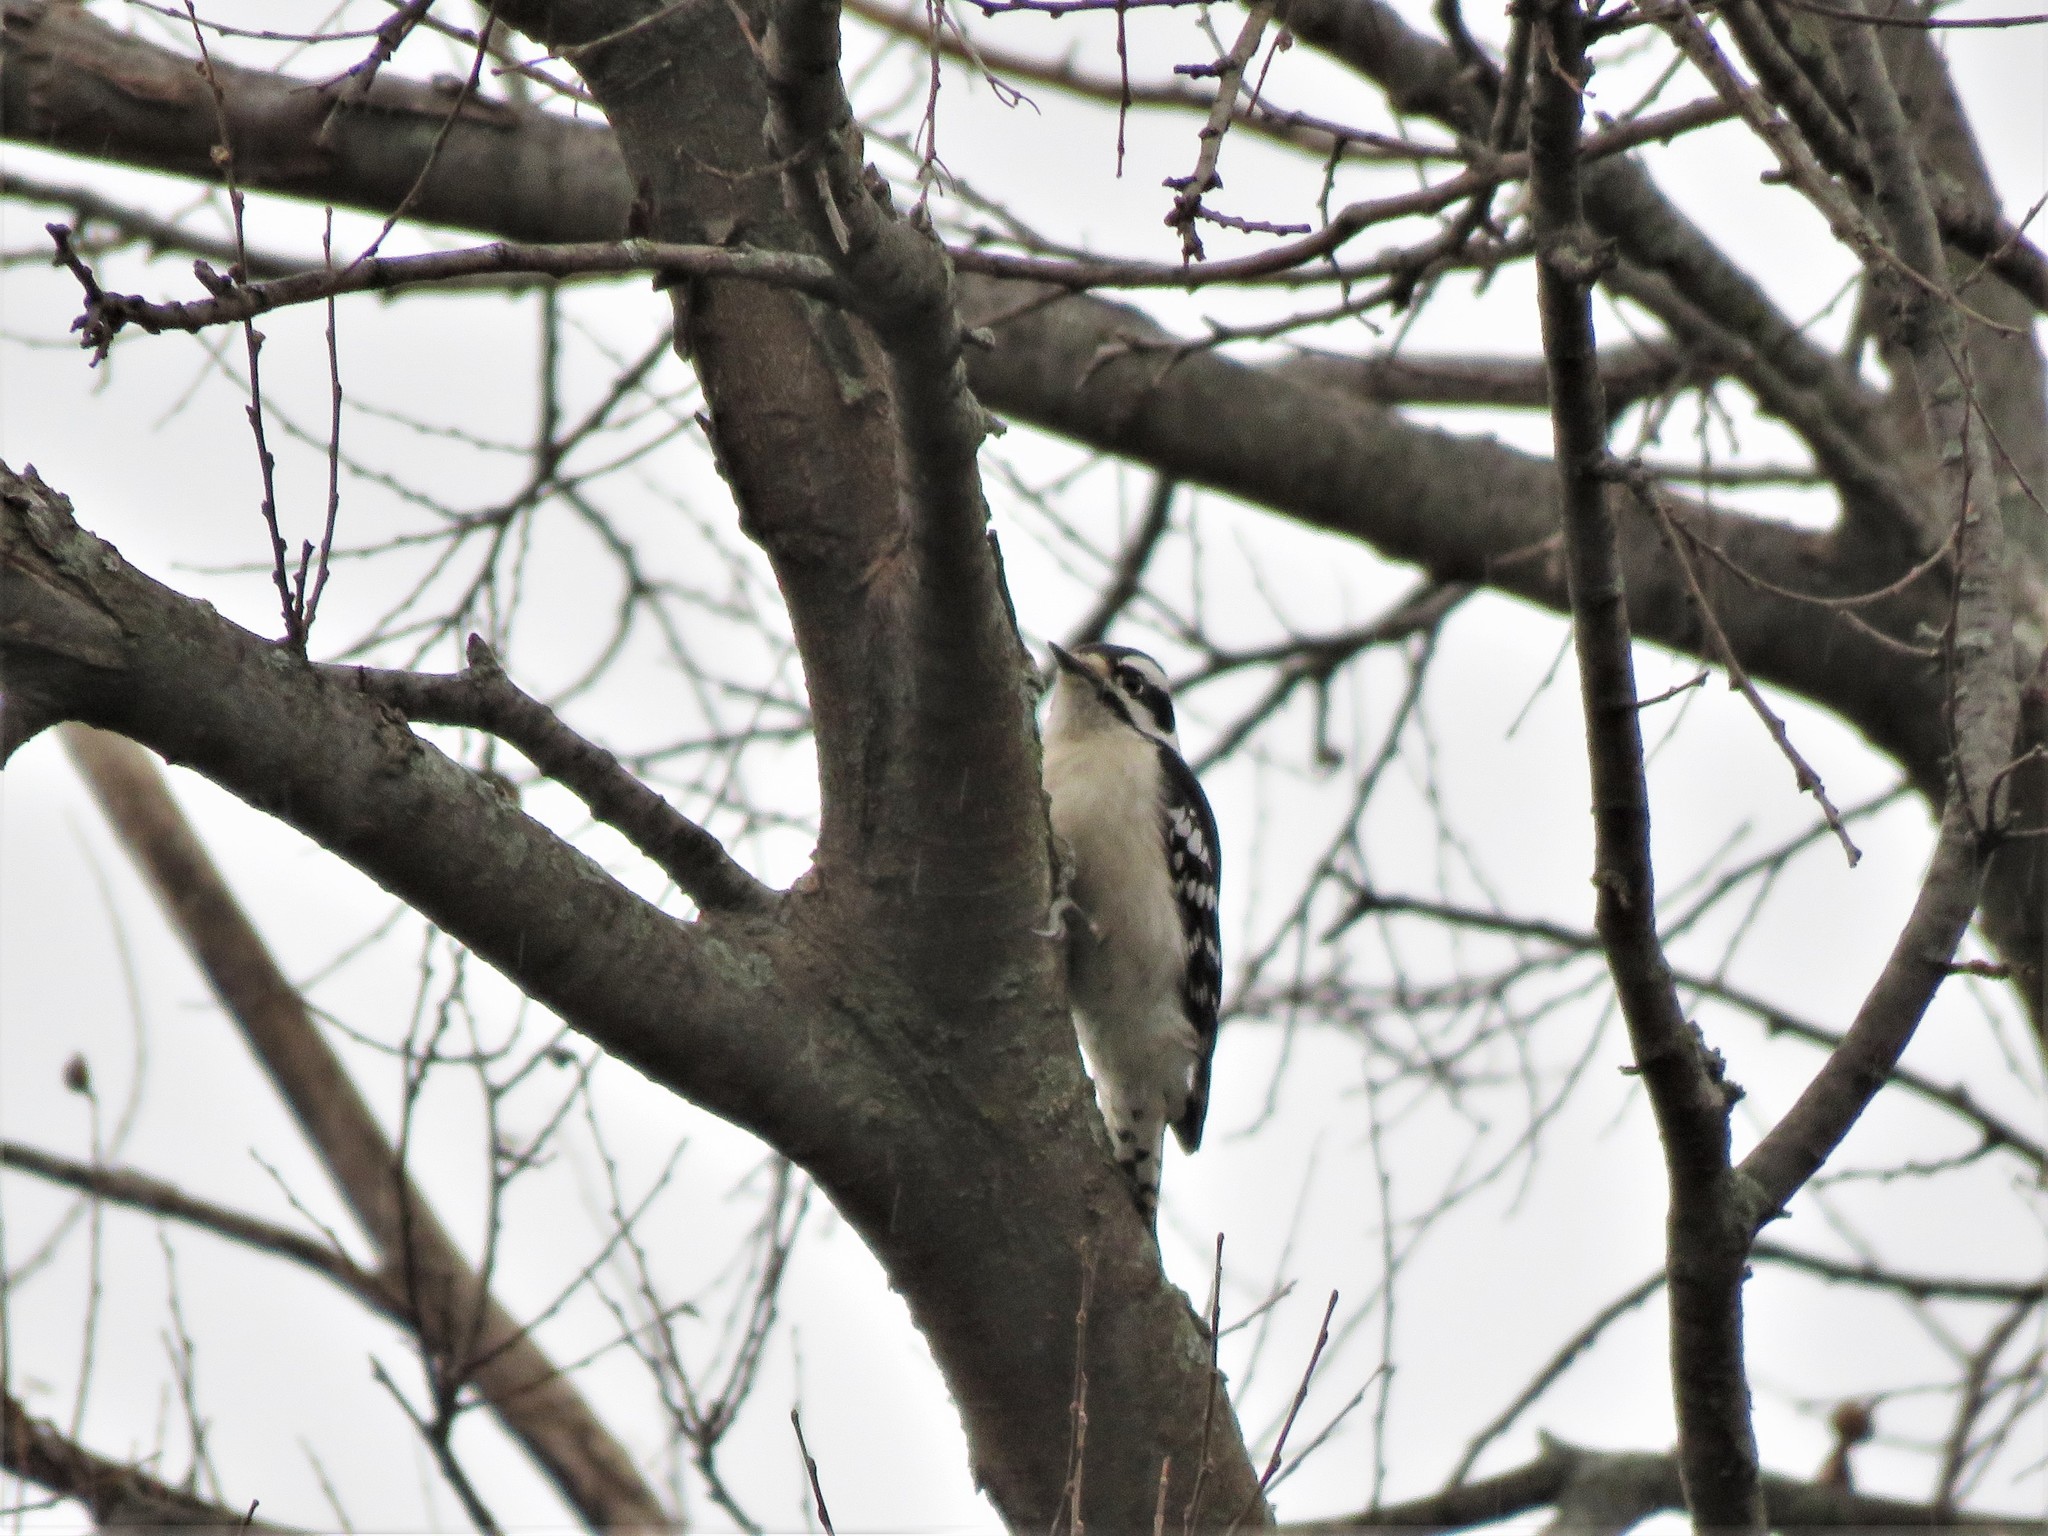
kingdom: Animalia
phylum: Chordata
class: Aves
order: Piciformes
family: Picidae
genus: Dryobates
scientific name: Dryobates pubescens
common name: Downy woodpecker
